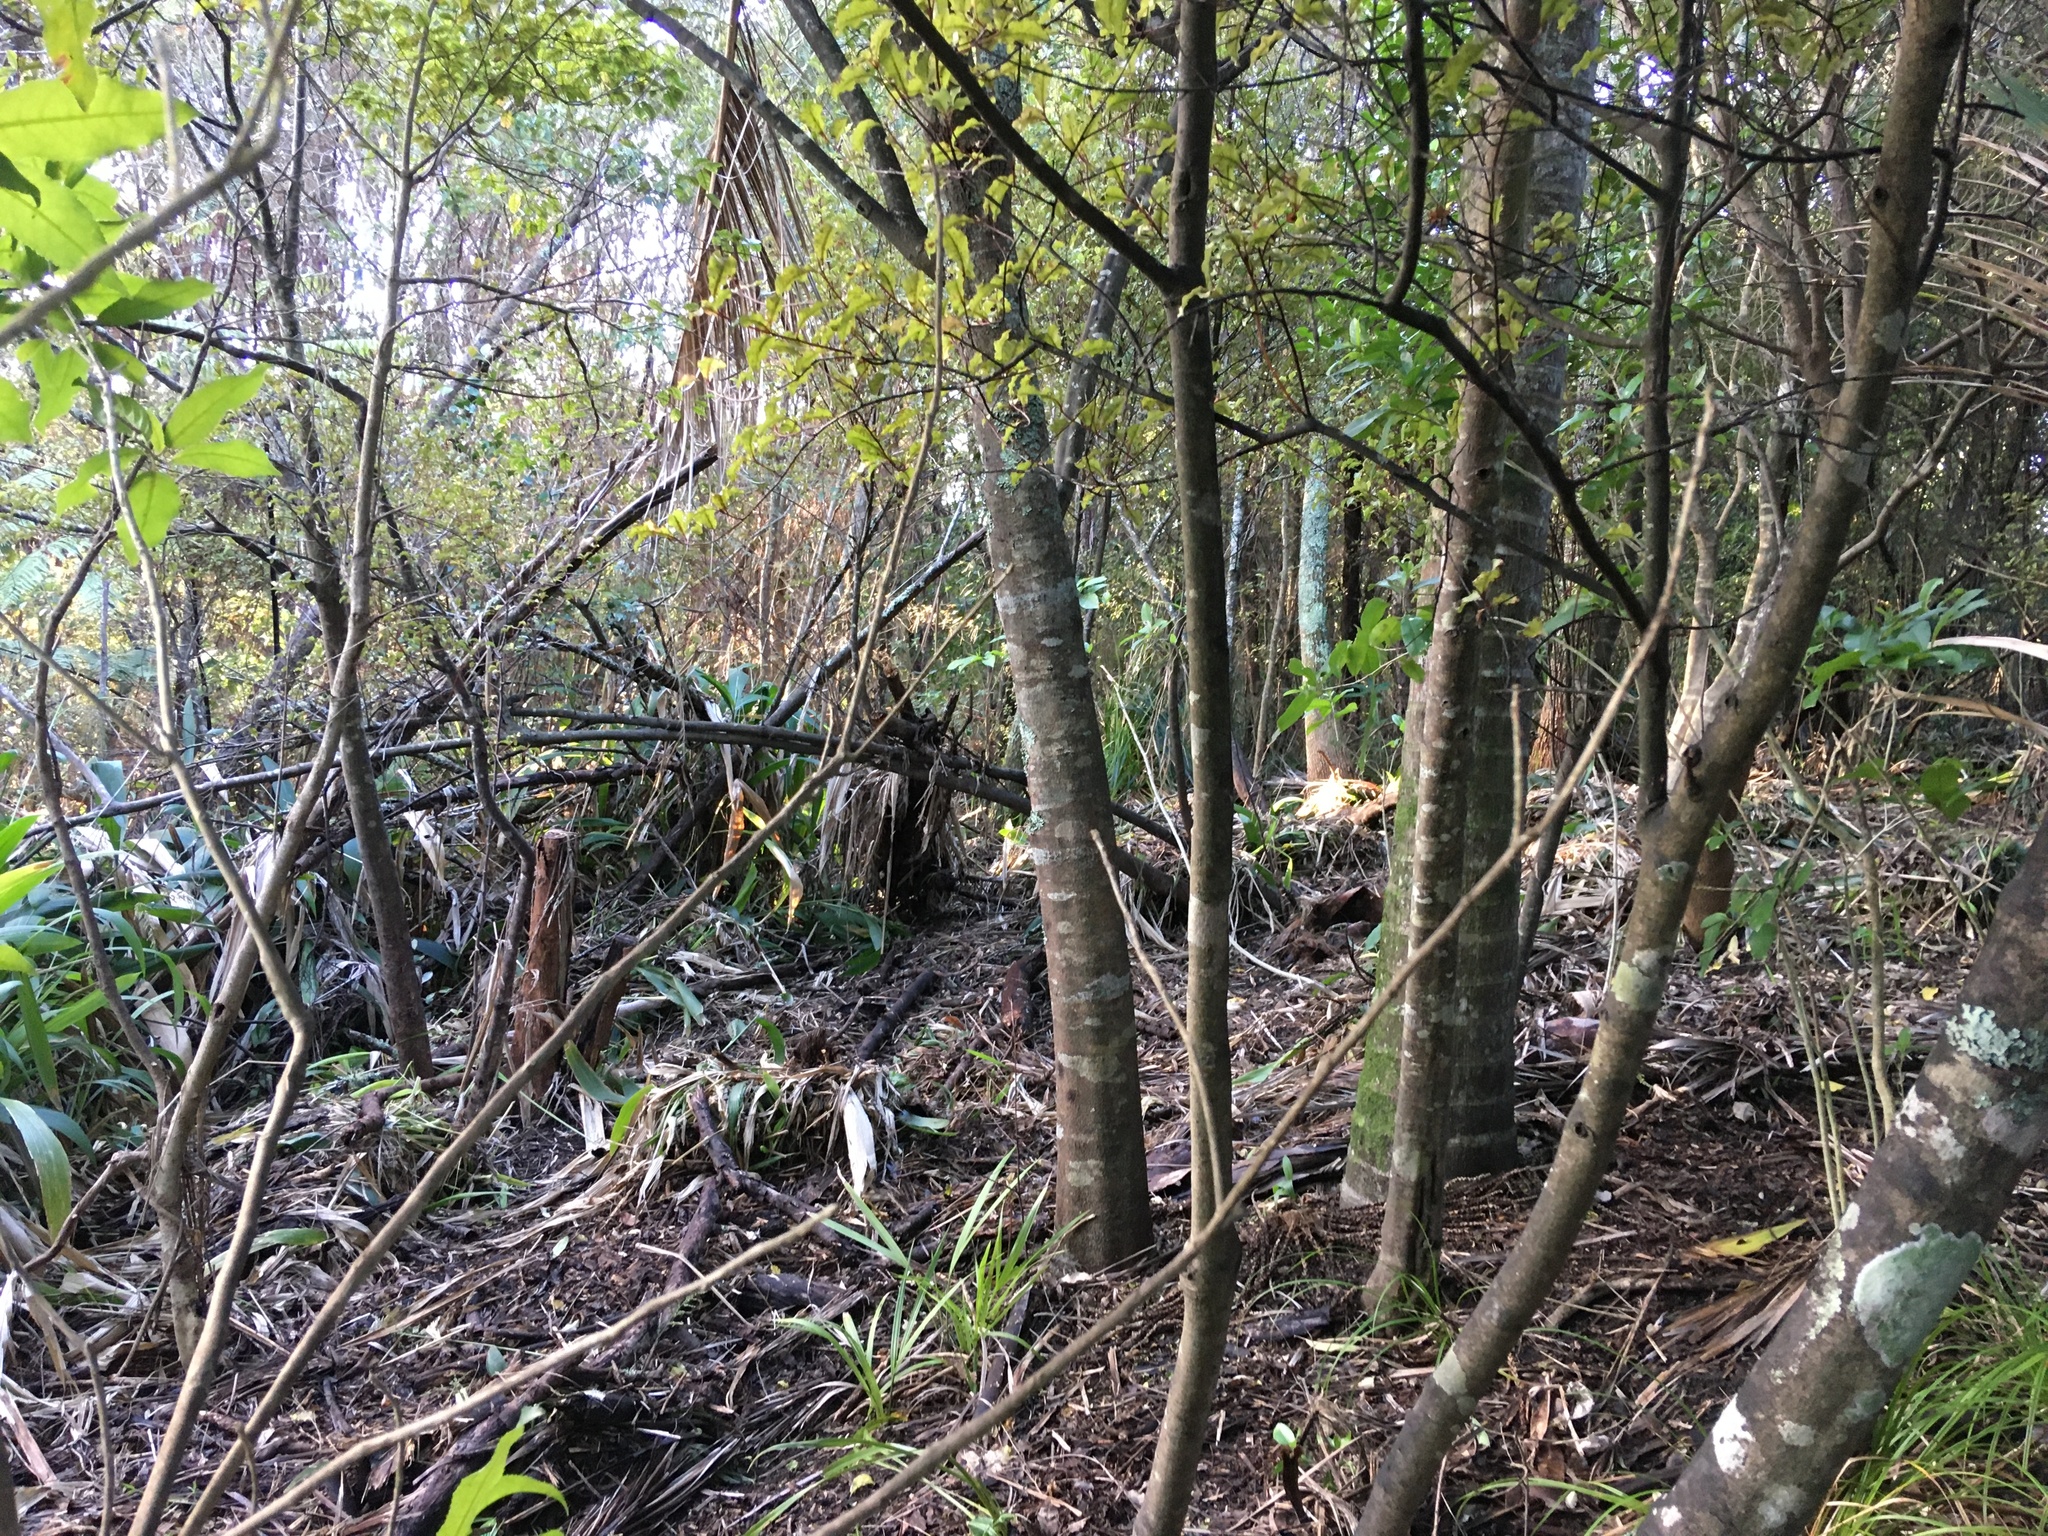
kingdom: Plantae
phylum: Tracheophyta
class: Liliopsida
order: Arecales
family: Arecaceae
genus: Rhopalostylis
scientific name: Rhopalostylis sapida
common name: Feather-duster palm
